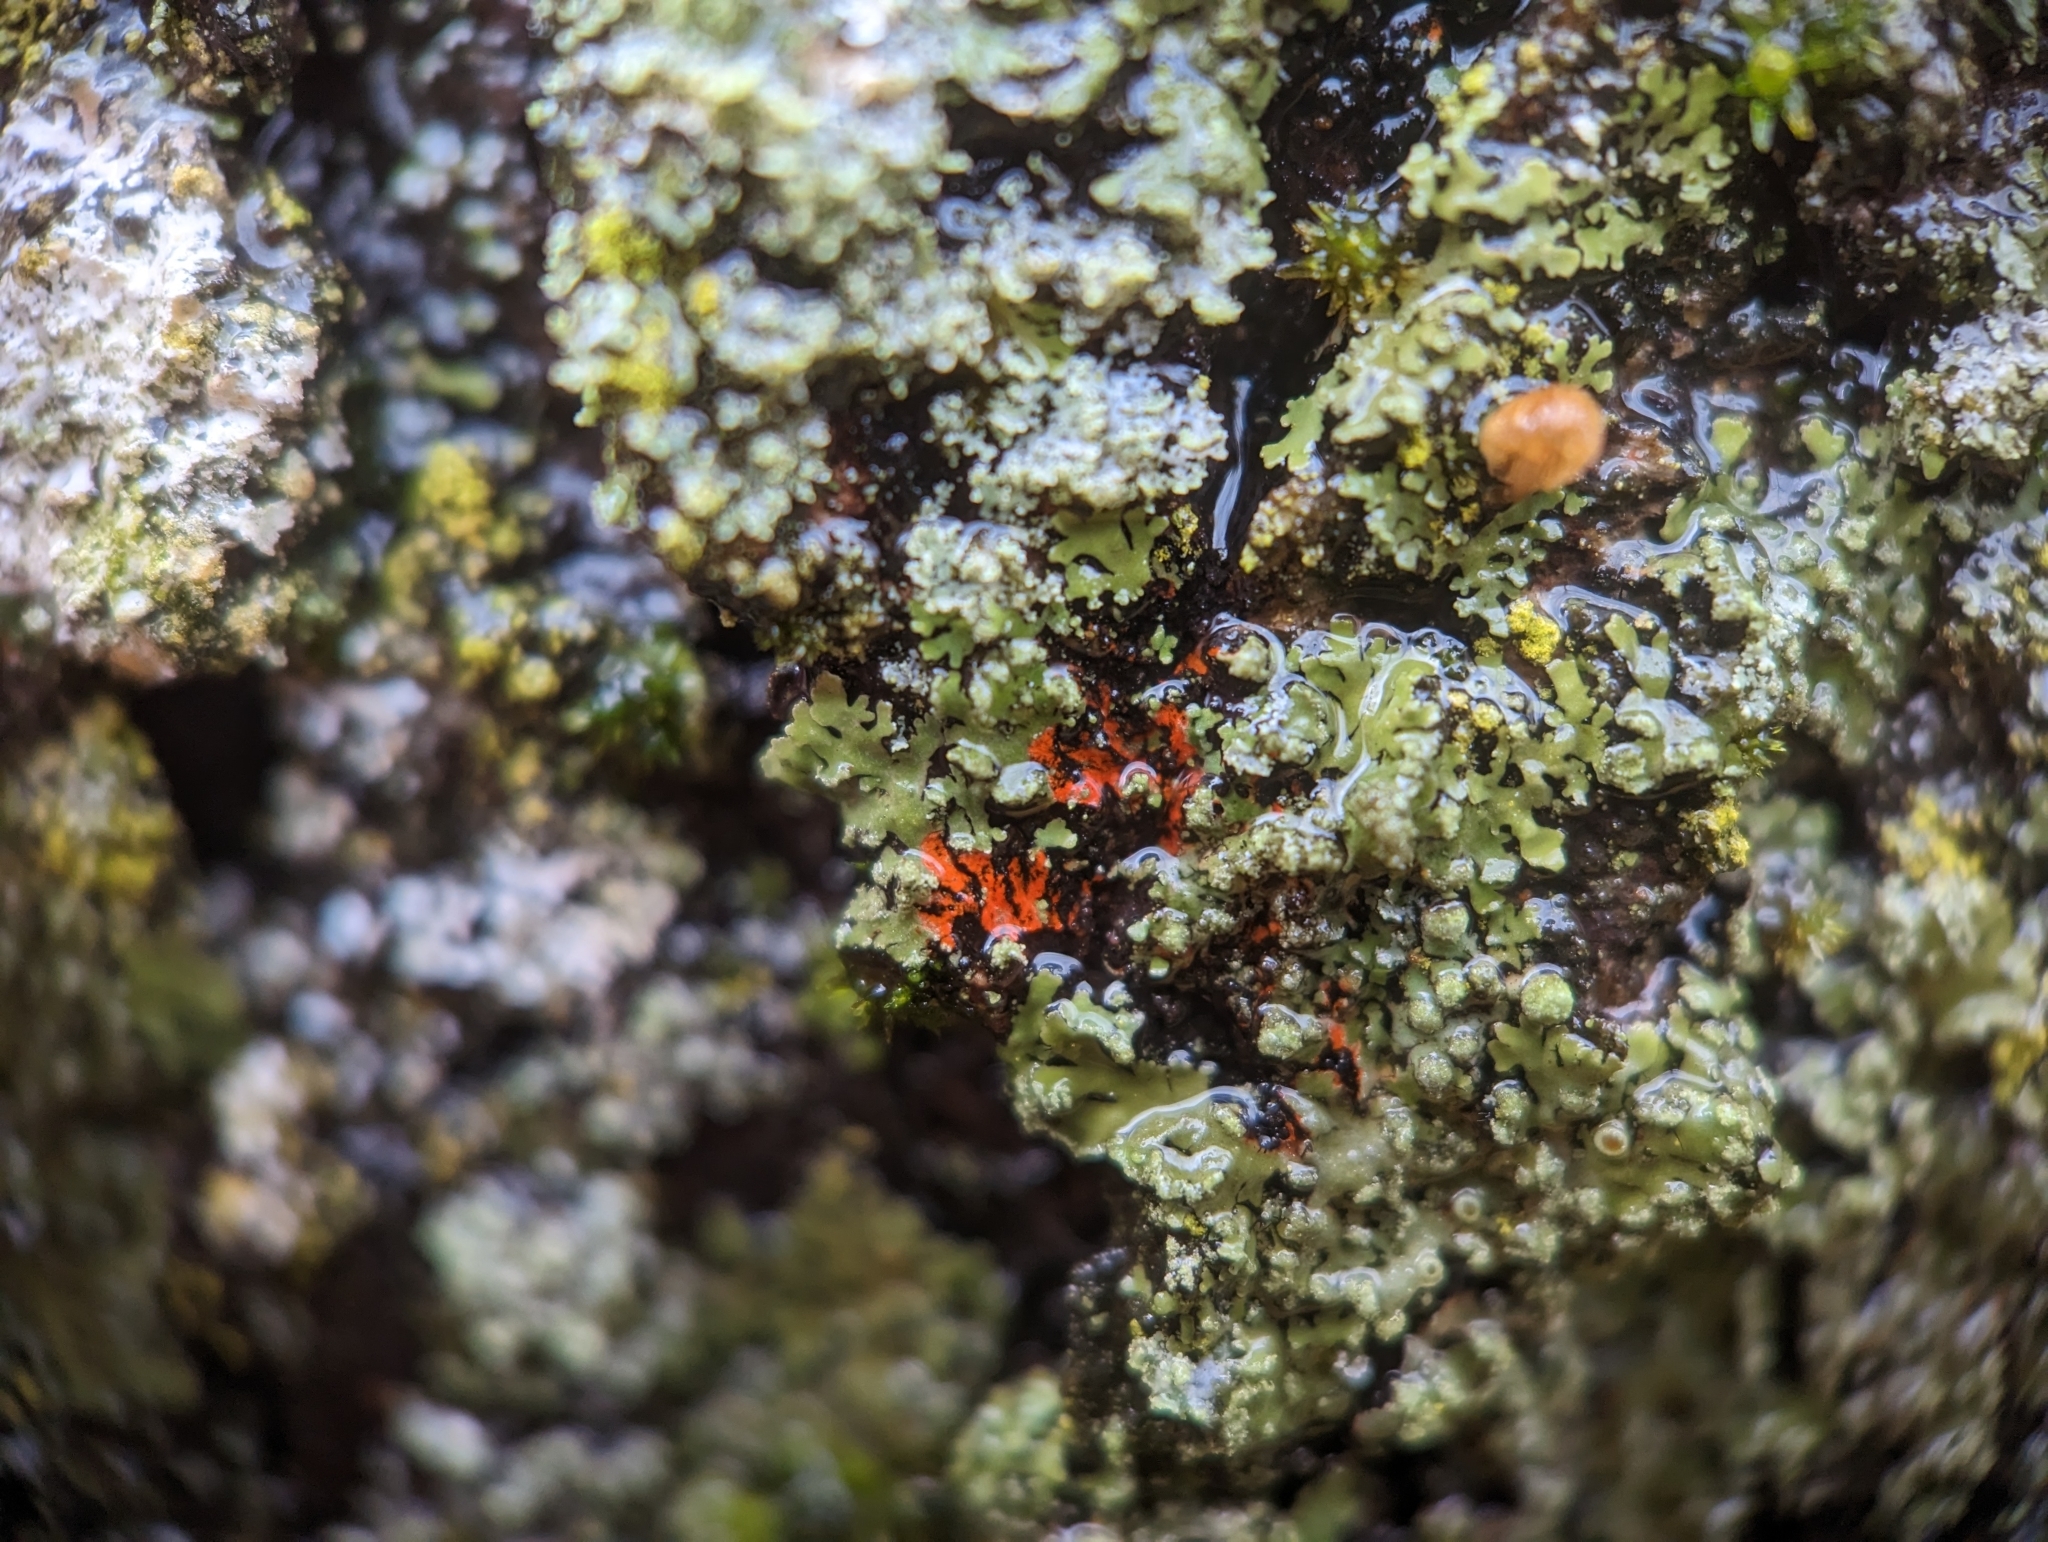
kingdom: Fungi
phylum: Ascomycota
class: Lecanoromycetes
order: Caliciales
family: Physciaceae
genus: Phaeophyscia
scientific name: Phaeophyscia rubropulchra
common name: Orange-cored shadow lichen
